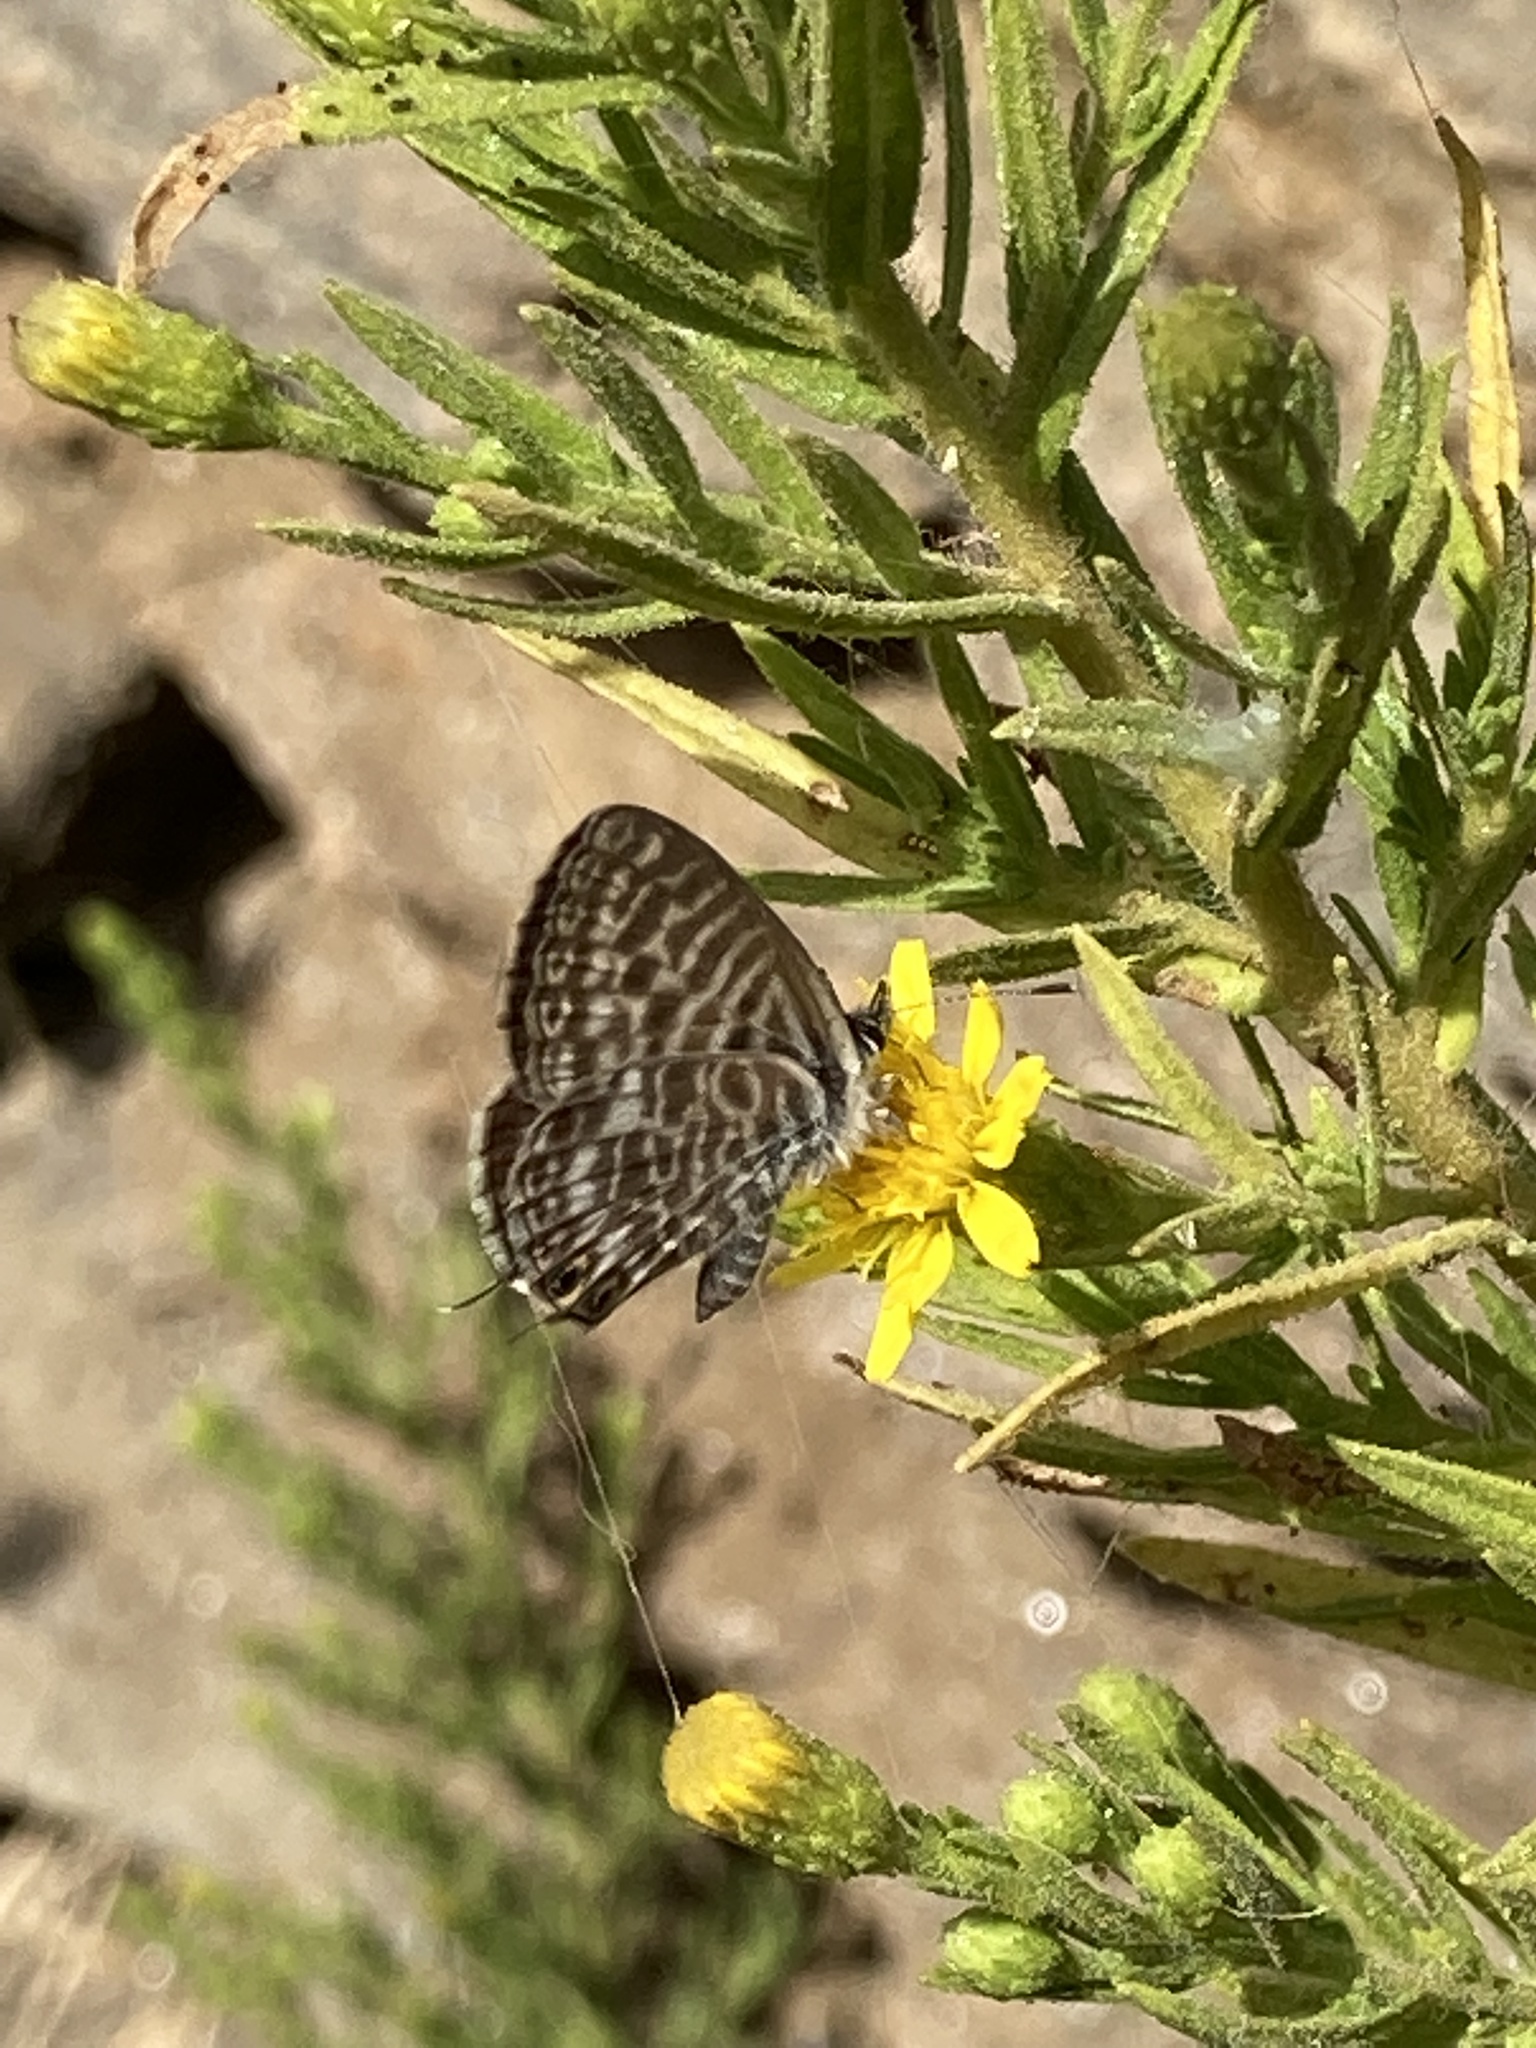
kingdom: Animalia
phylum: Arthropoda
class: Insecta
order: Lepidoptera
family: Lycaenidae
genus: Leptotes
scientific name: Leptotes pirithous
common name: Lang's short-tailed blue
